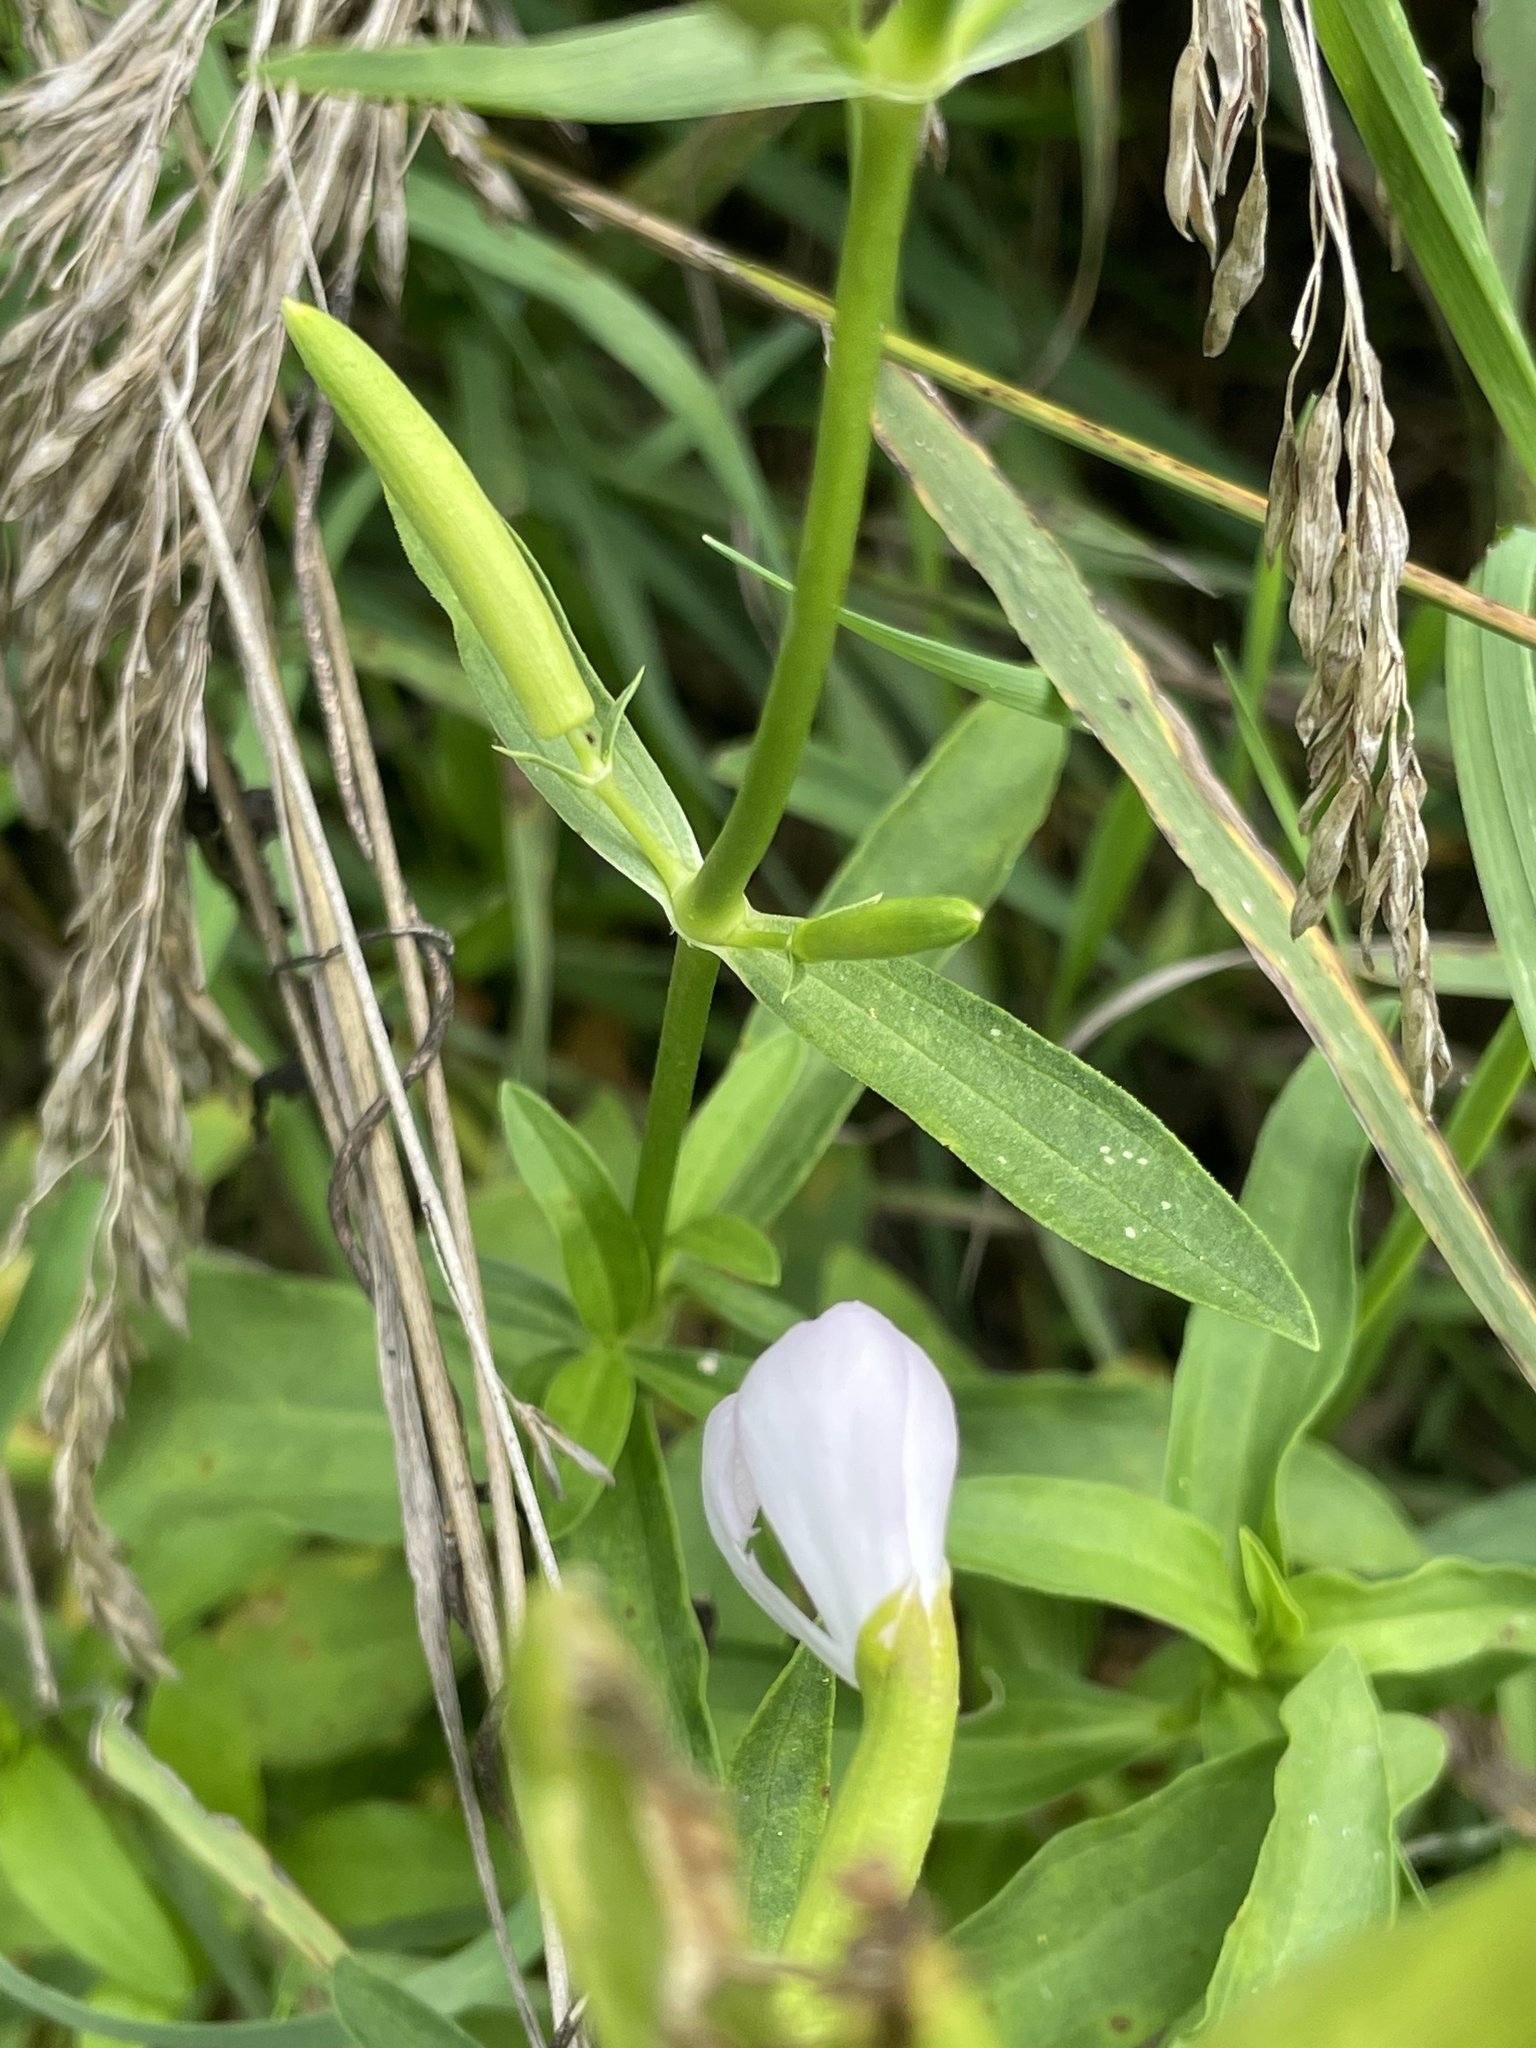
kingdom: Plantae
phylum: Tracheophyta
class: Magnoliopsida
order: Caryophyllales
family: Caryophyllaceae
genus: Saponaria
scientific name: Saponaria officinalis
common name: Soapwort
